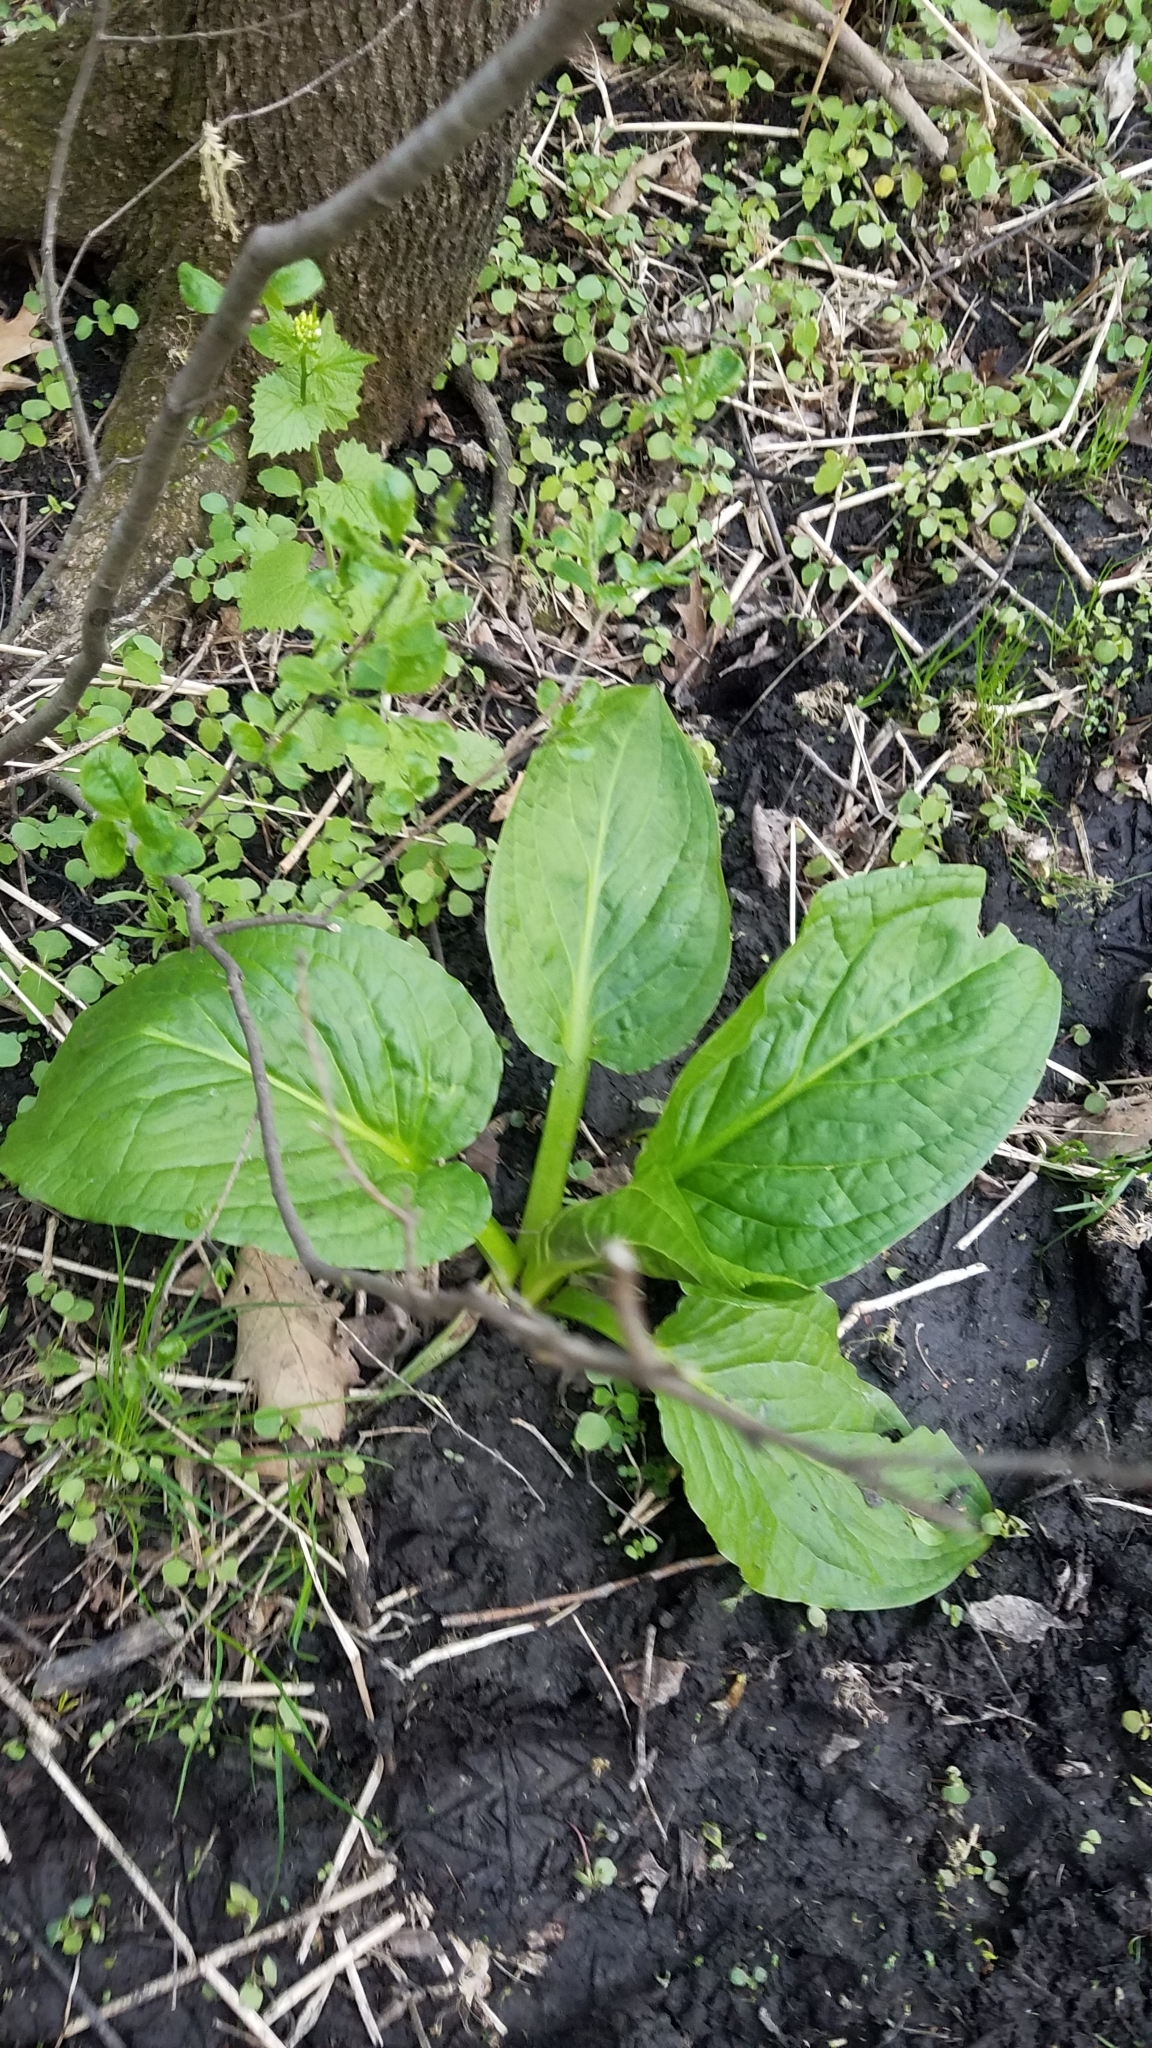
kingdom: Plantae
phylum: Tracheophyta
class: Liliopsida
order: Alismatales
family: Araceae
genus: Symplocarpus
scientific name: Symplocarpus foetidus
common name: Eastern skunk cabbage
